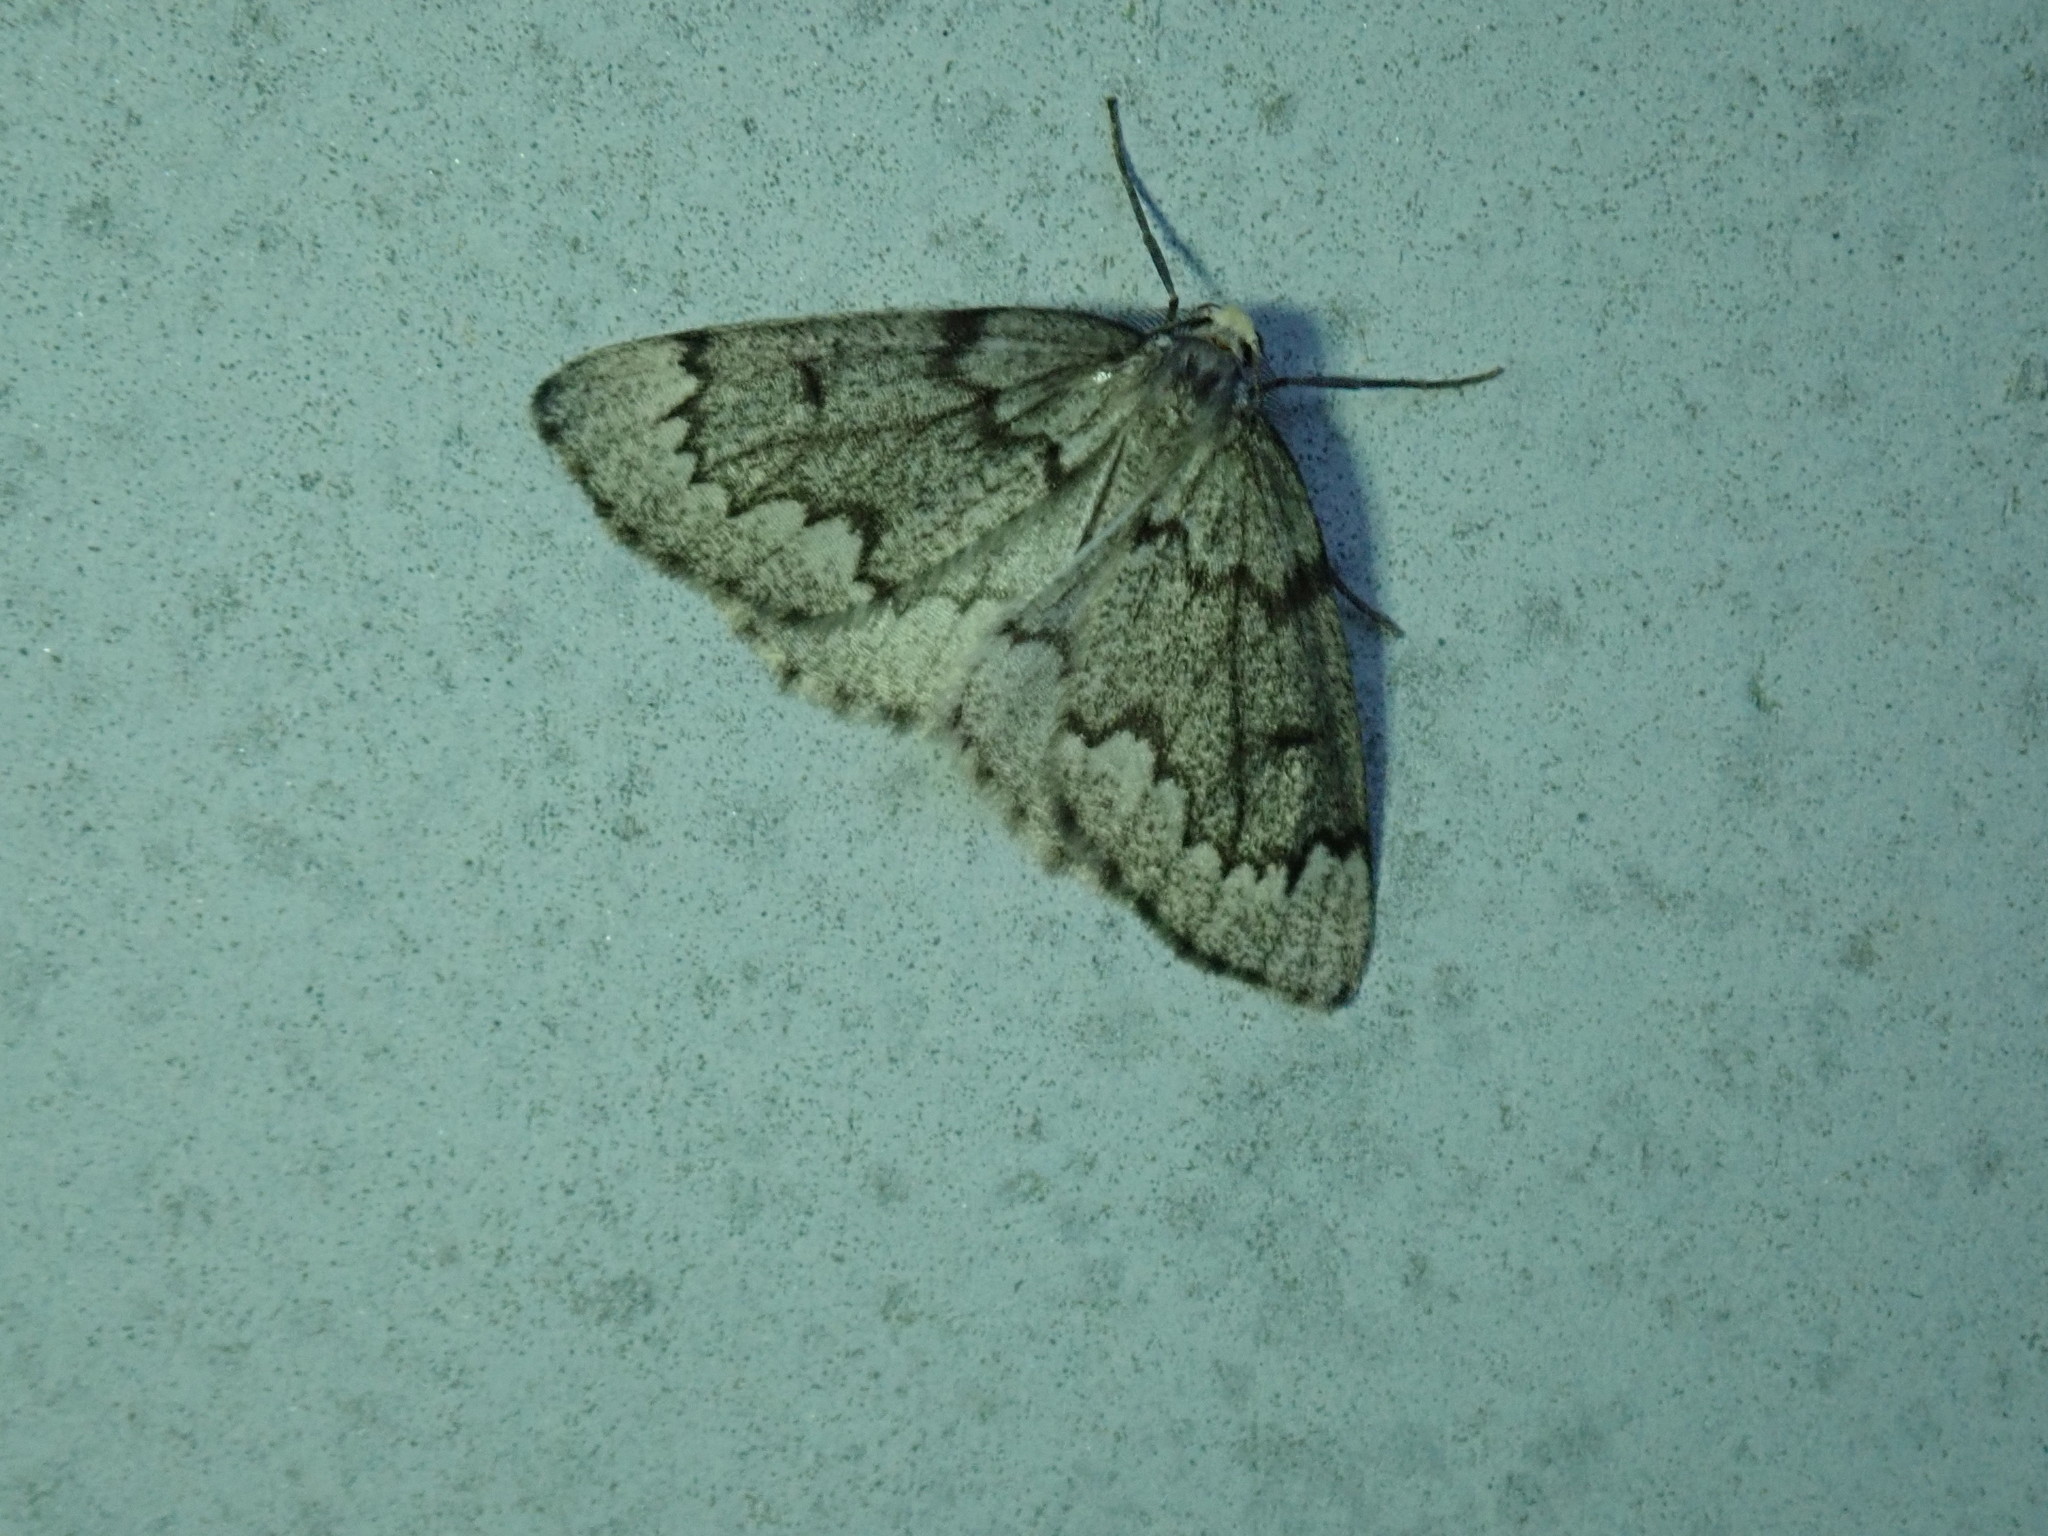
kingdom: Animalia
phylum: Arthropoda
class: Insecta
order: Lepidoptera
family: Geometridae
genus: Nepytia
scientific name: Nepytia canosaria
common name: False hemlock looper
